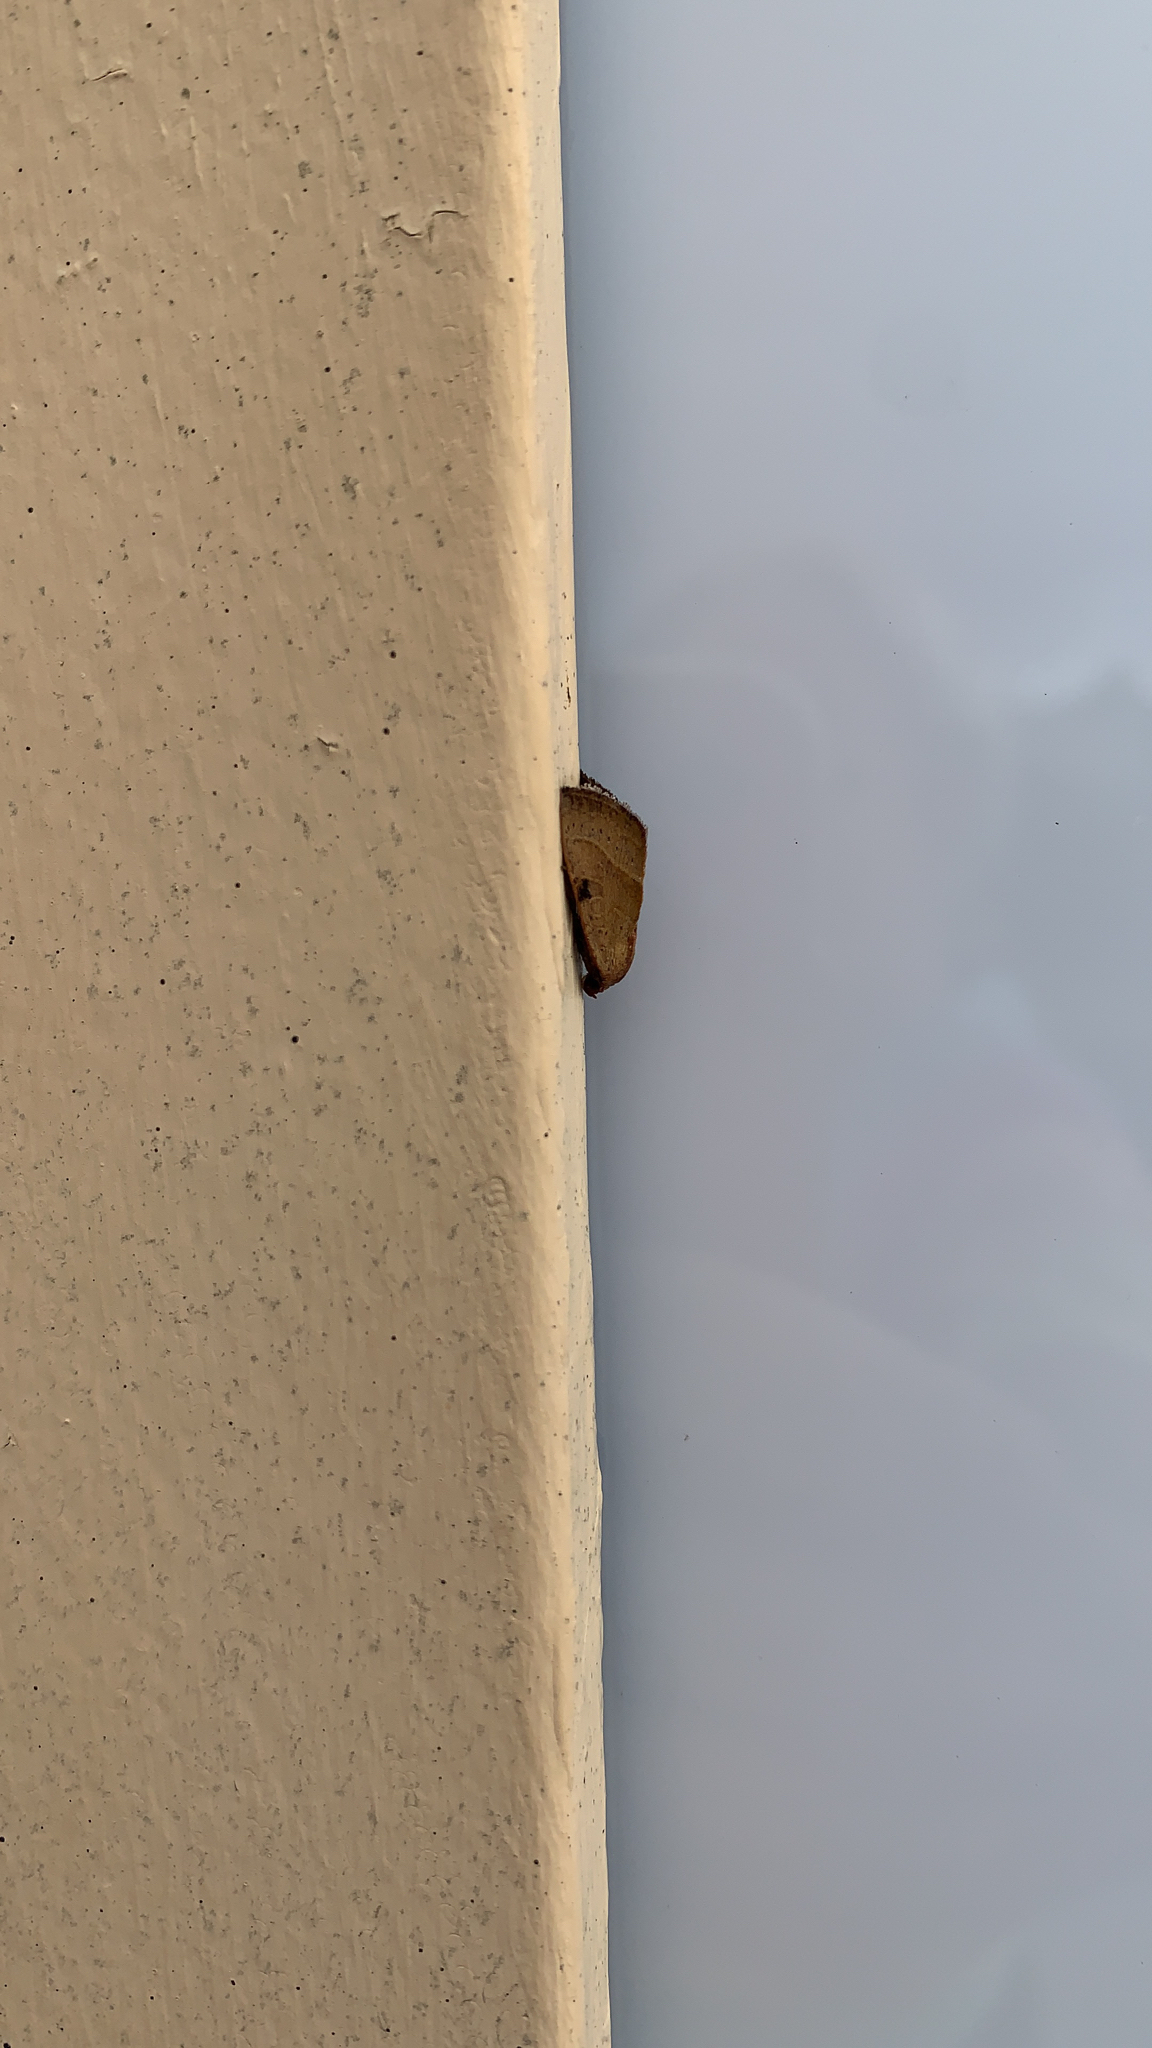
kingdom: Animalia
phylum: Arthropoda
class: Insecta
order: Lepidoptera
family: Noctuidae
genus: Galgula
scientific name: Galgula partita
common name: Wedgeling
